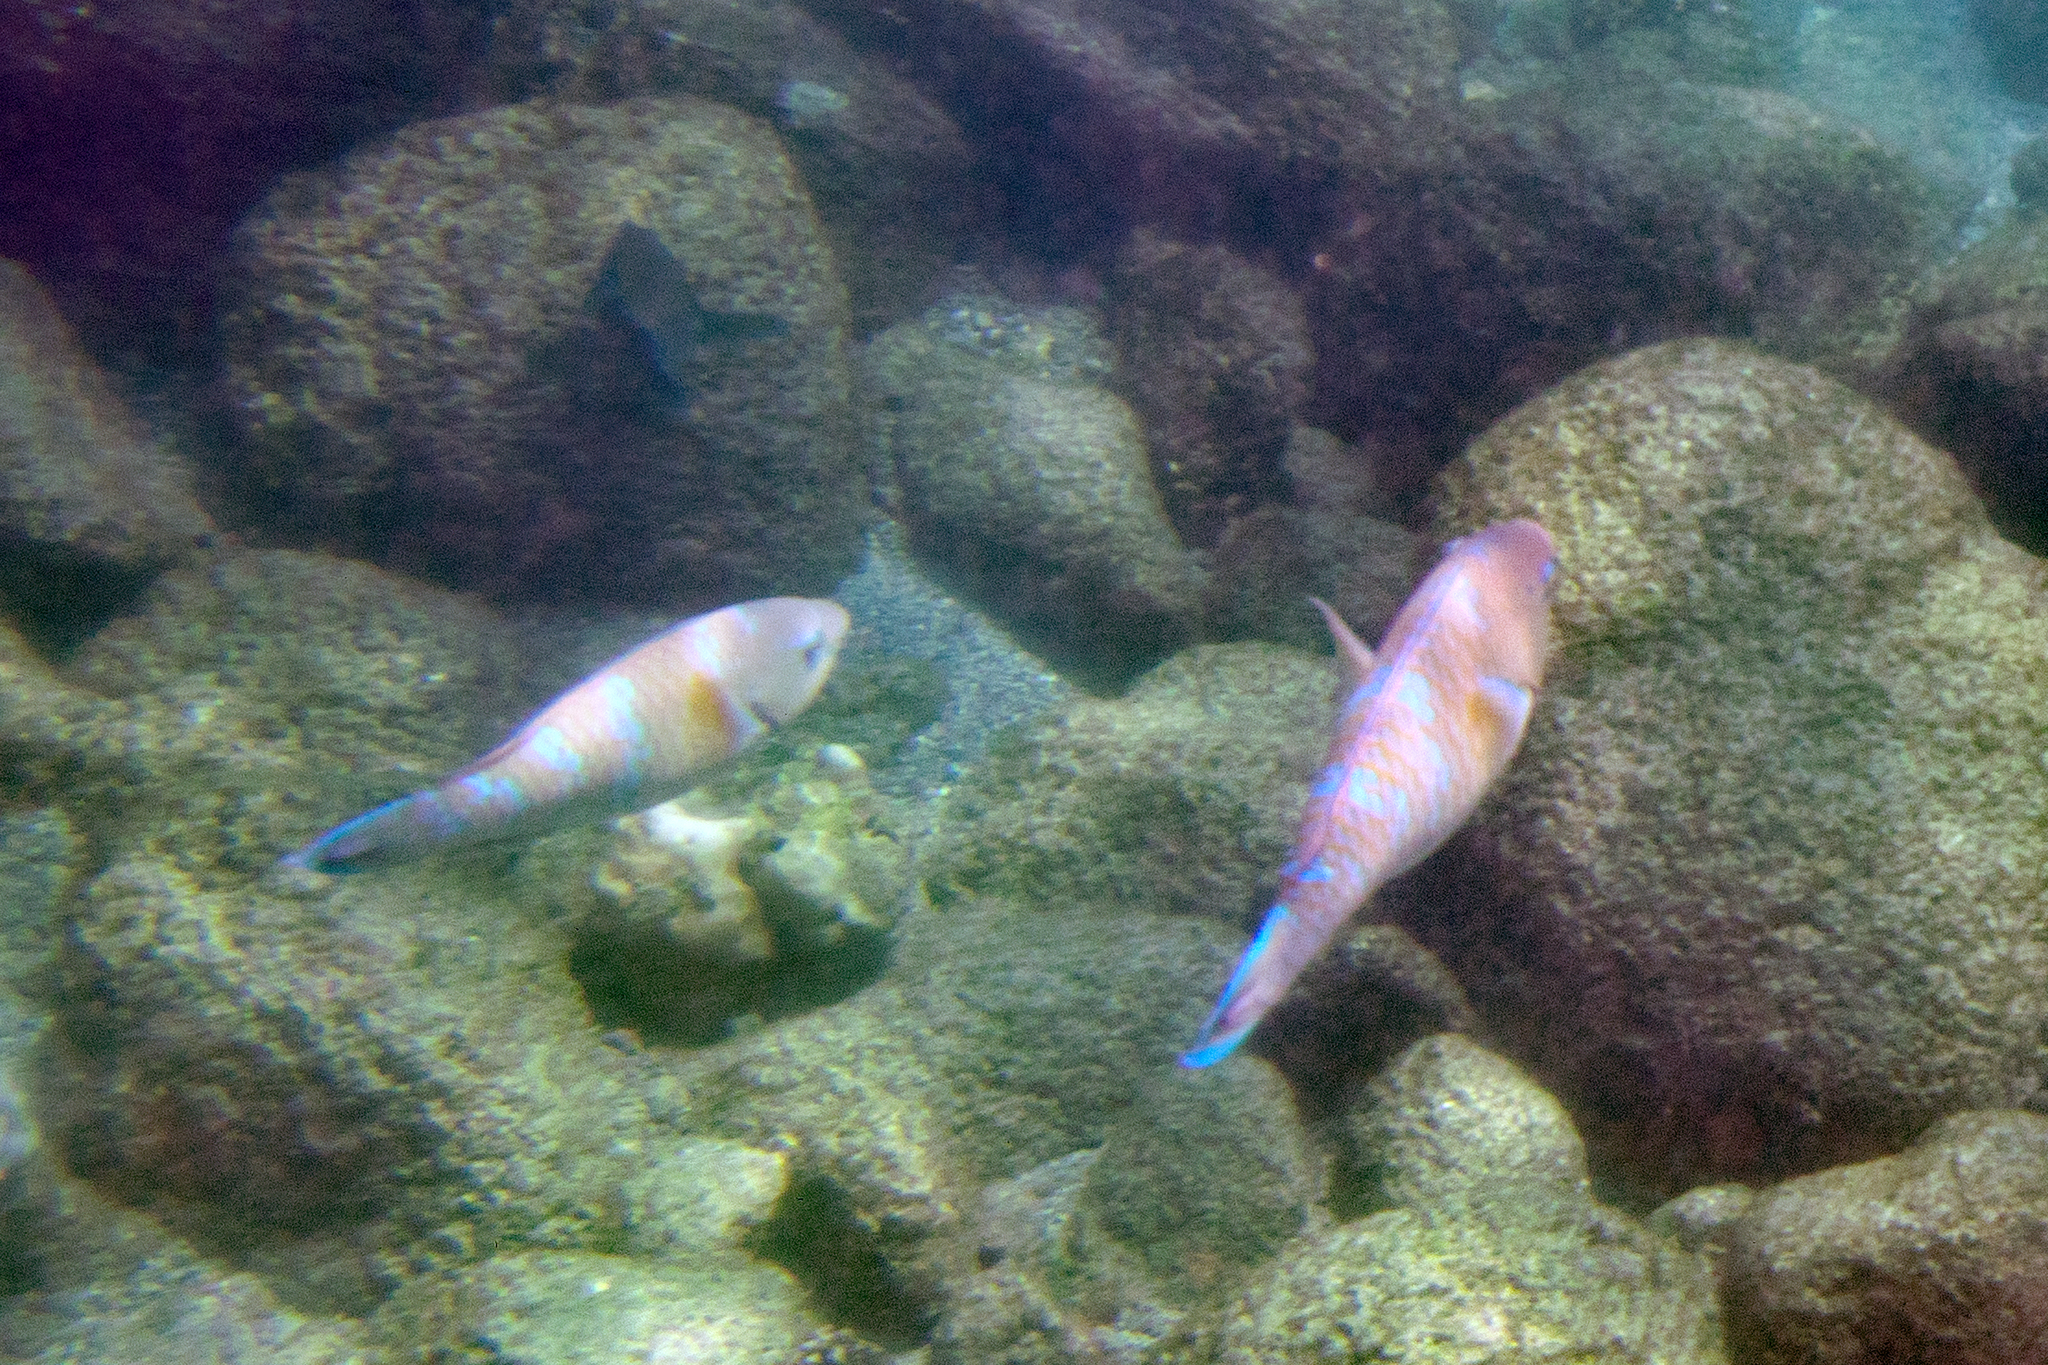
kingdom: Animalia
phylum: Chordata
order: Perciformes
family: Scaridae
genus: Scarus
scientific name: Scarus ghobban
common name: Blue-barred parrotfish
